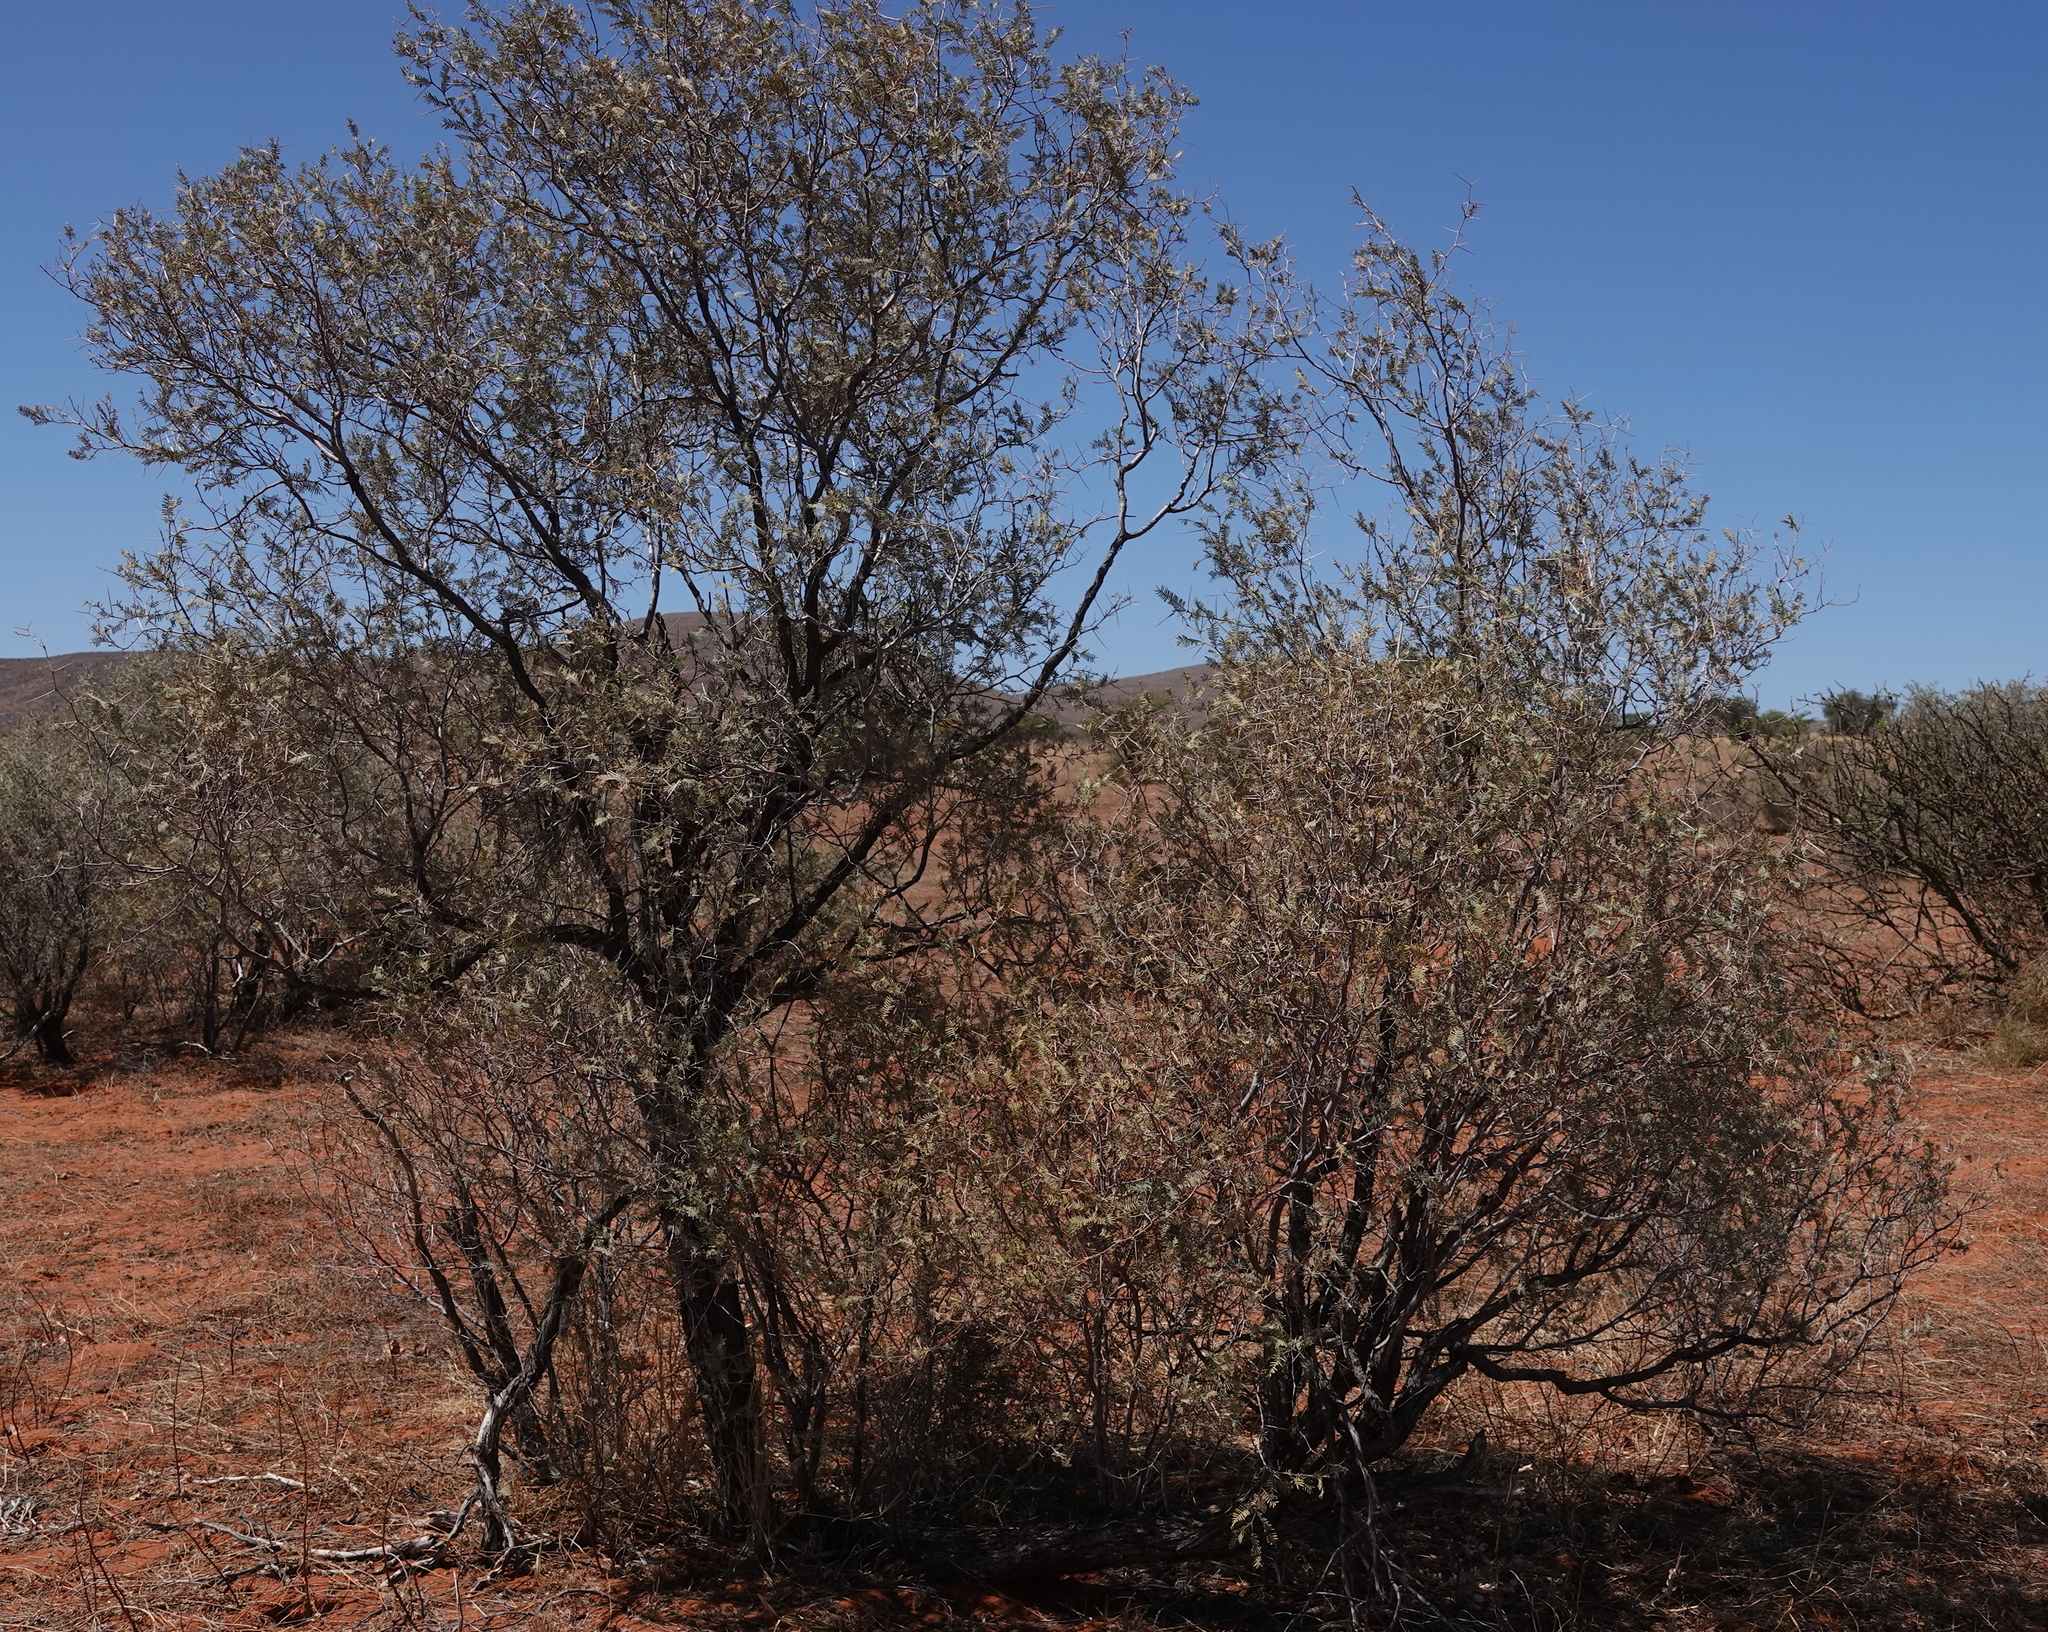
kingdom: Plantae
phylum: Tracheophyta
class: Magnoliopsida
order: Fabales
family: Fabaceae
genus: Vachellia
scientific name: Vachellia haematoxylon
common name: Grey camel thorn
